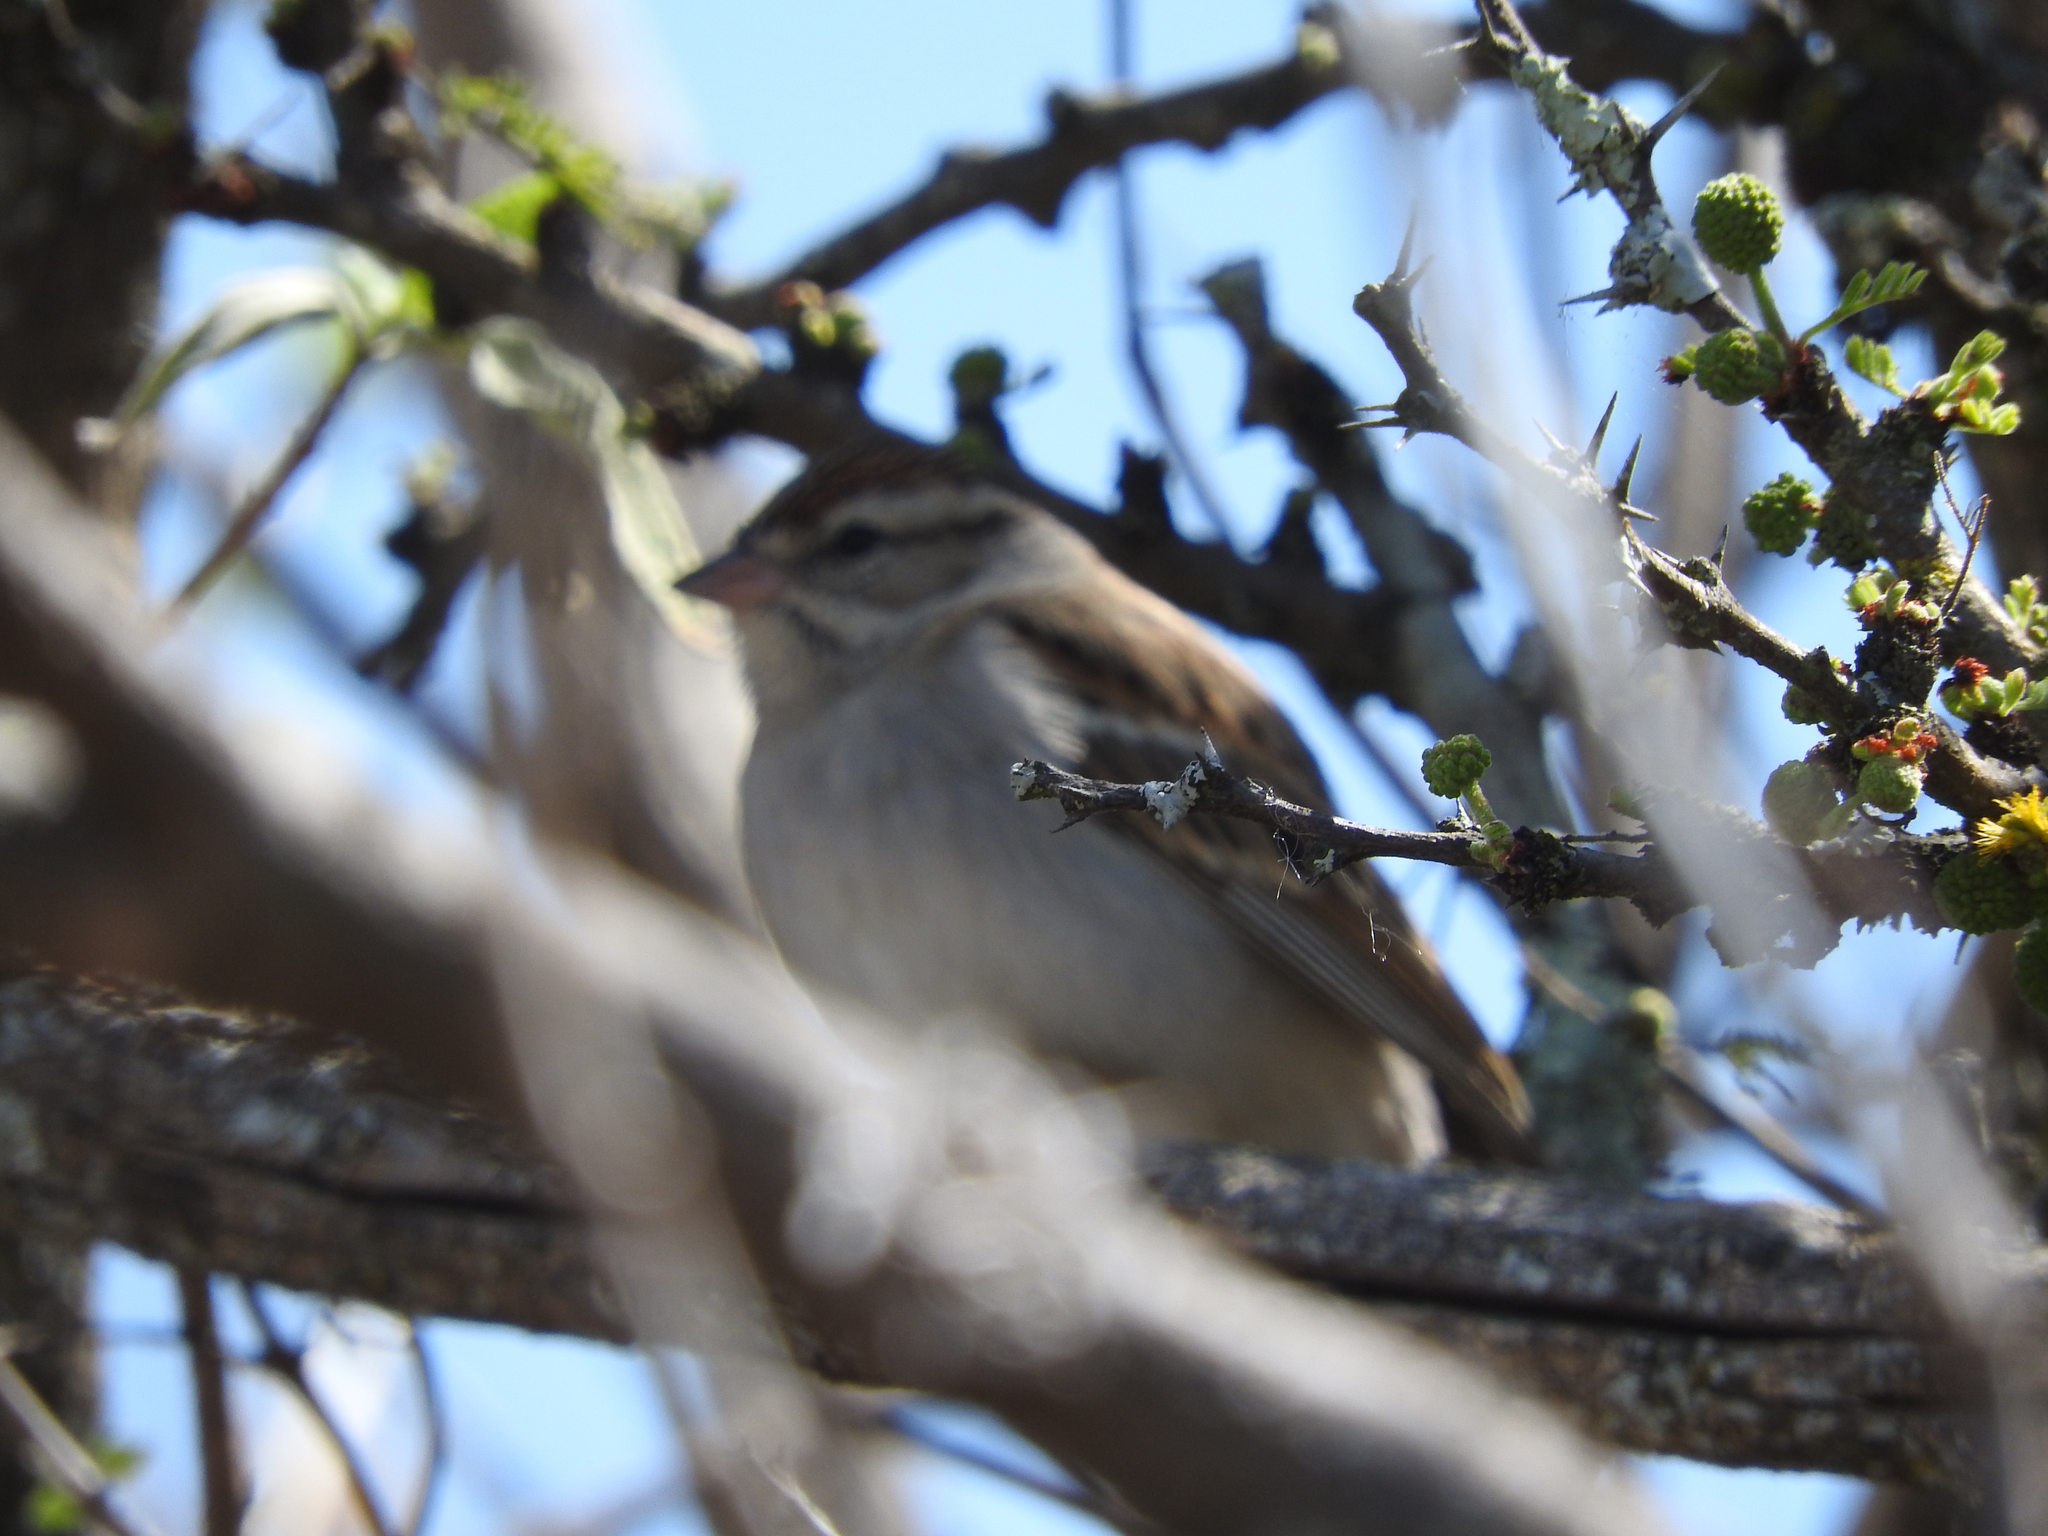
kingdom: Animalia
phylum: Chordata
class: Aves
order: Passeriformes
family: Passerellidae
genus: Spizella
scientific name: Spizella passerina
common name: Chipping sparrow
